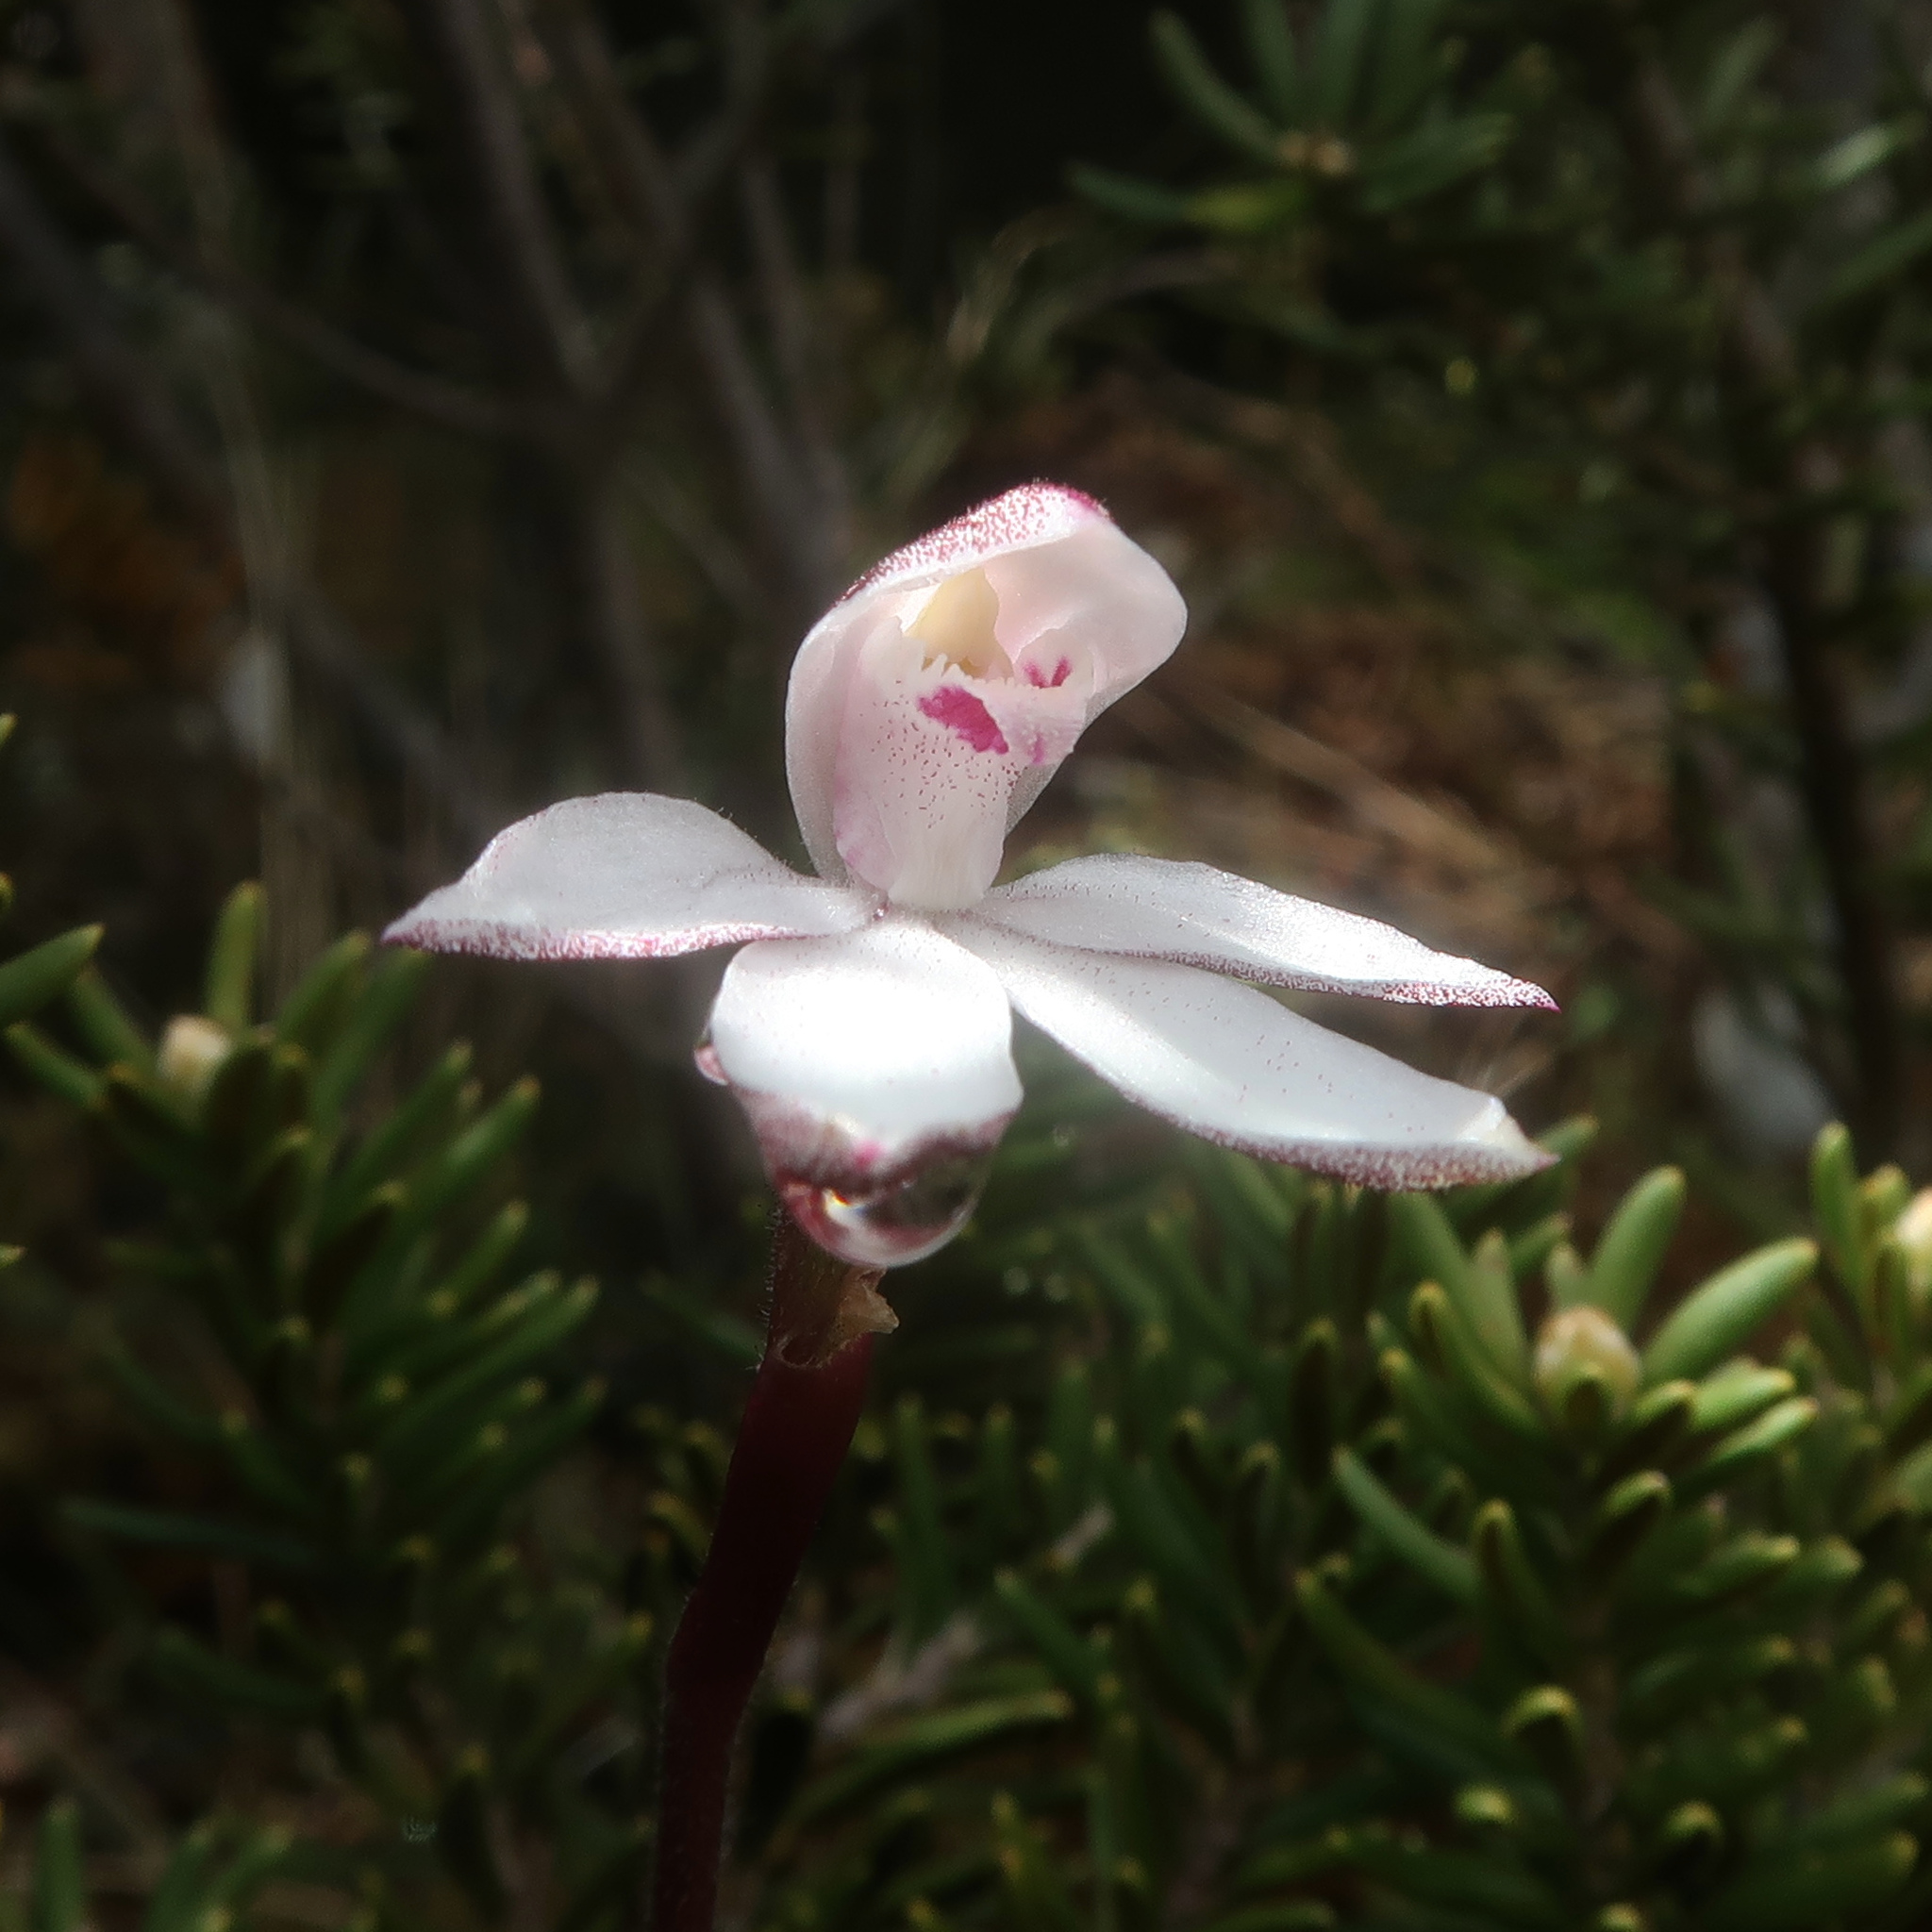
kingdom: Plantae
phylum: Tracheophyta
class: Liliopsida
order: Asparagales
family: Orchidaceae
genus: Caladenia
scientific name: Caladenia alpina
